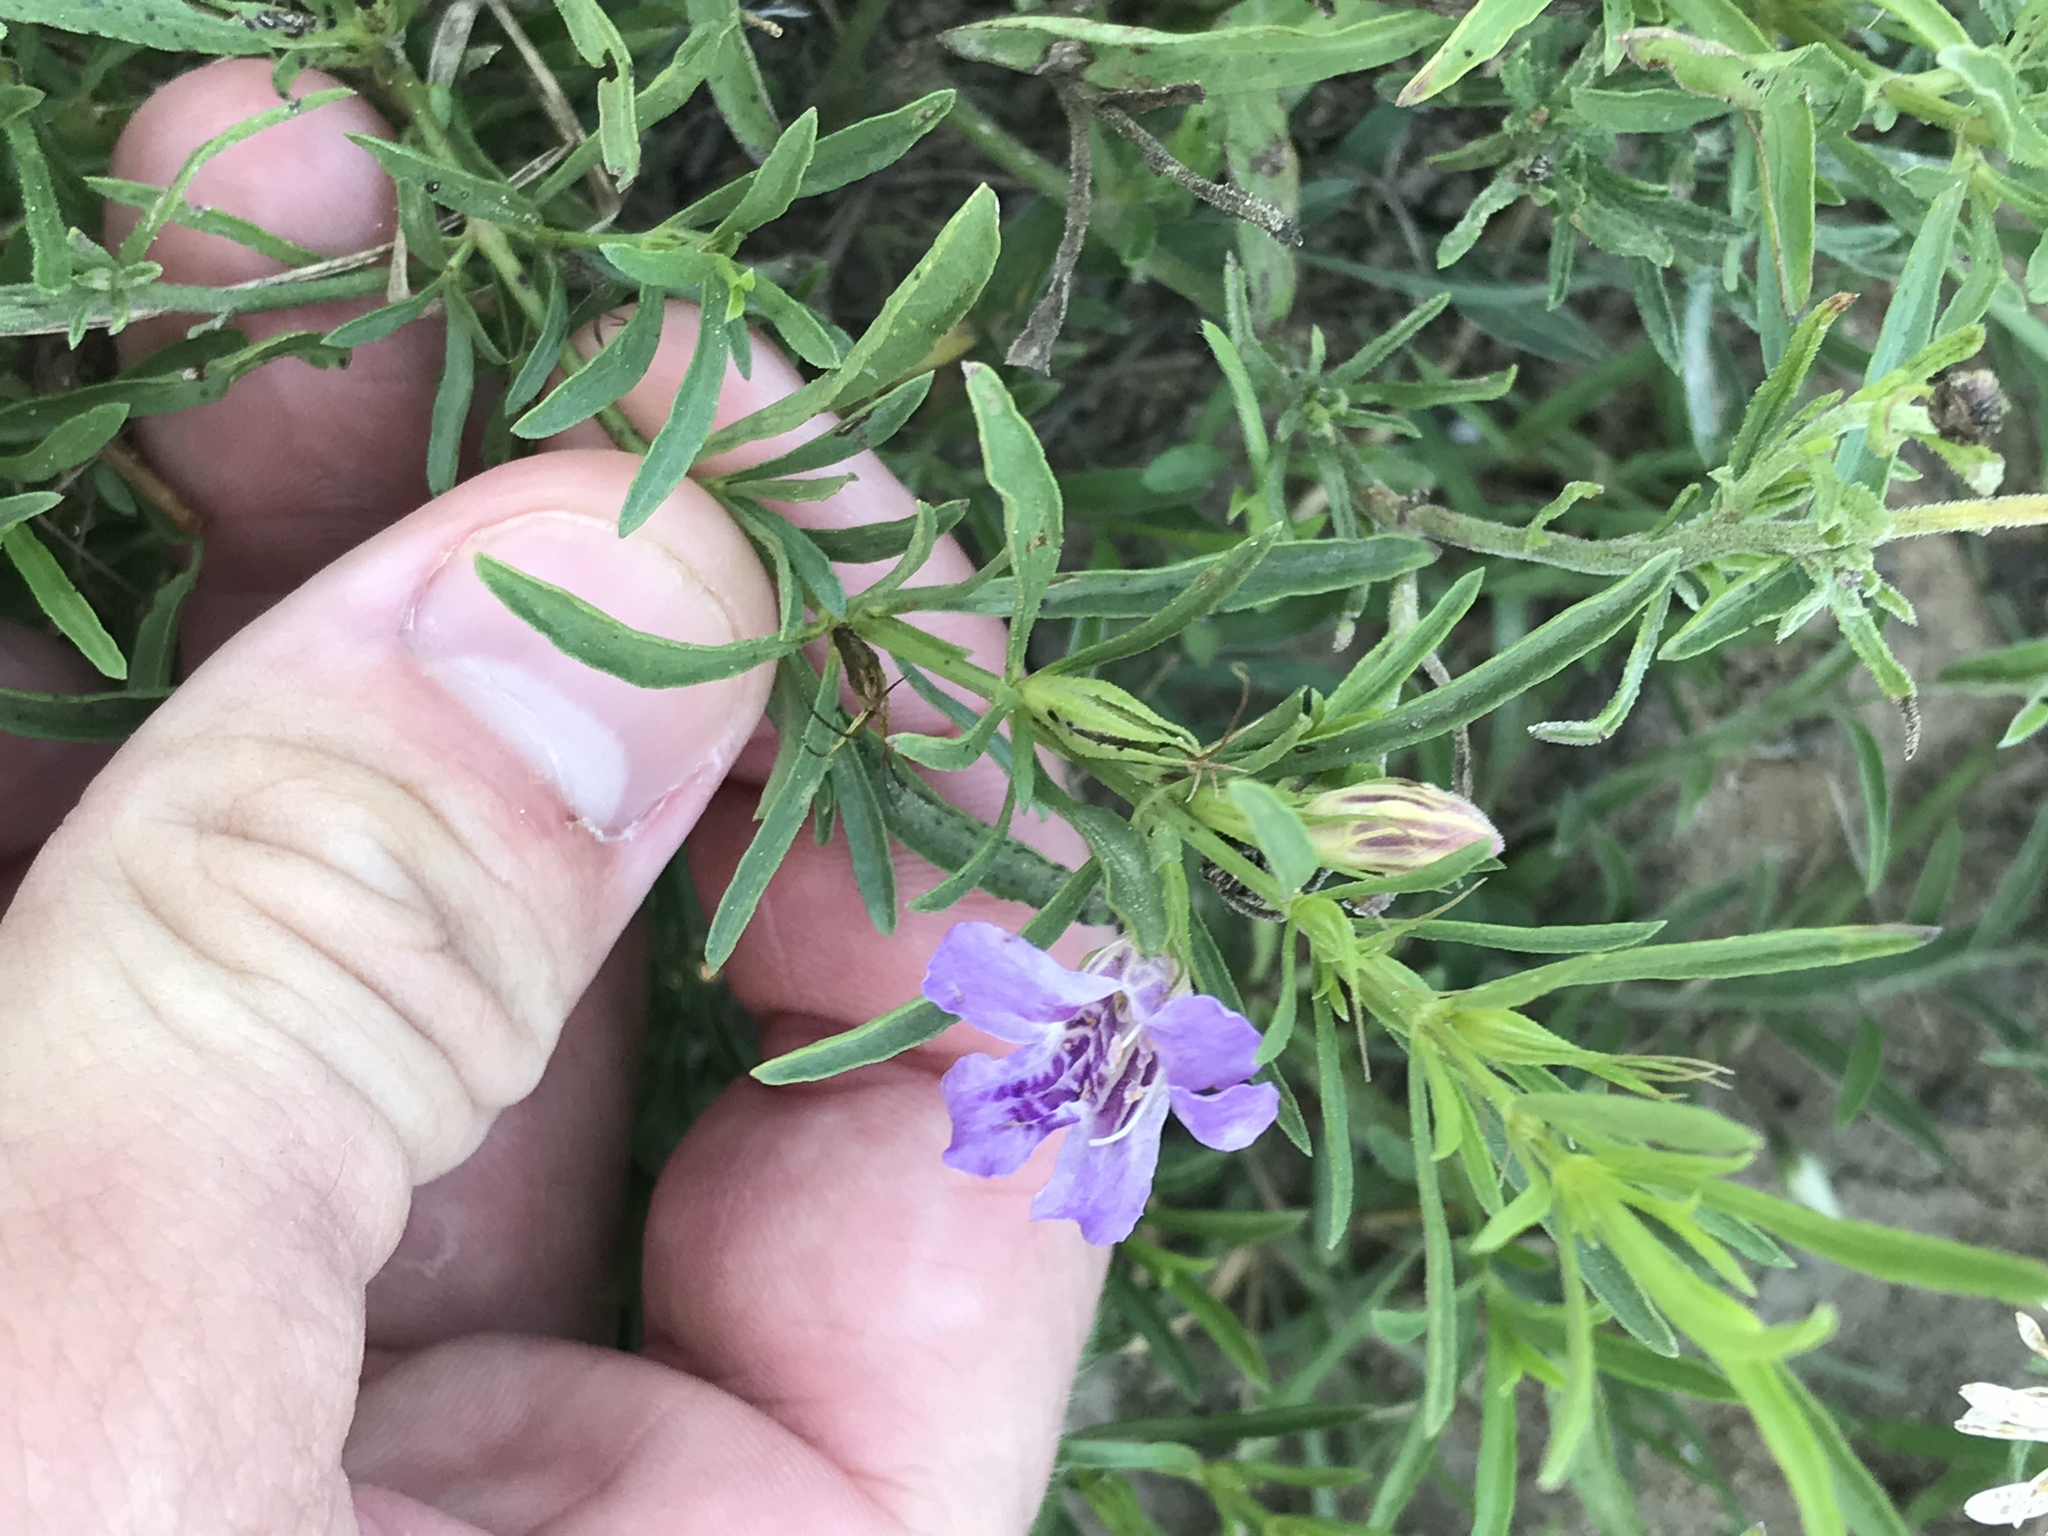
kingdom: Plantae
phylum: Tracheophyta
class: Magnoliopsida
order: Lamiales
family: Acanthaceae
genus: Dyschoriste
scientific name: Dyschoriste linearis
